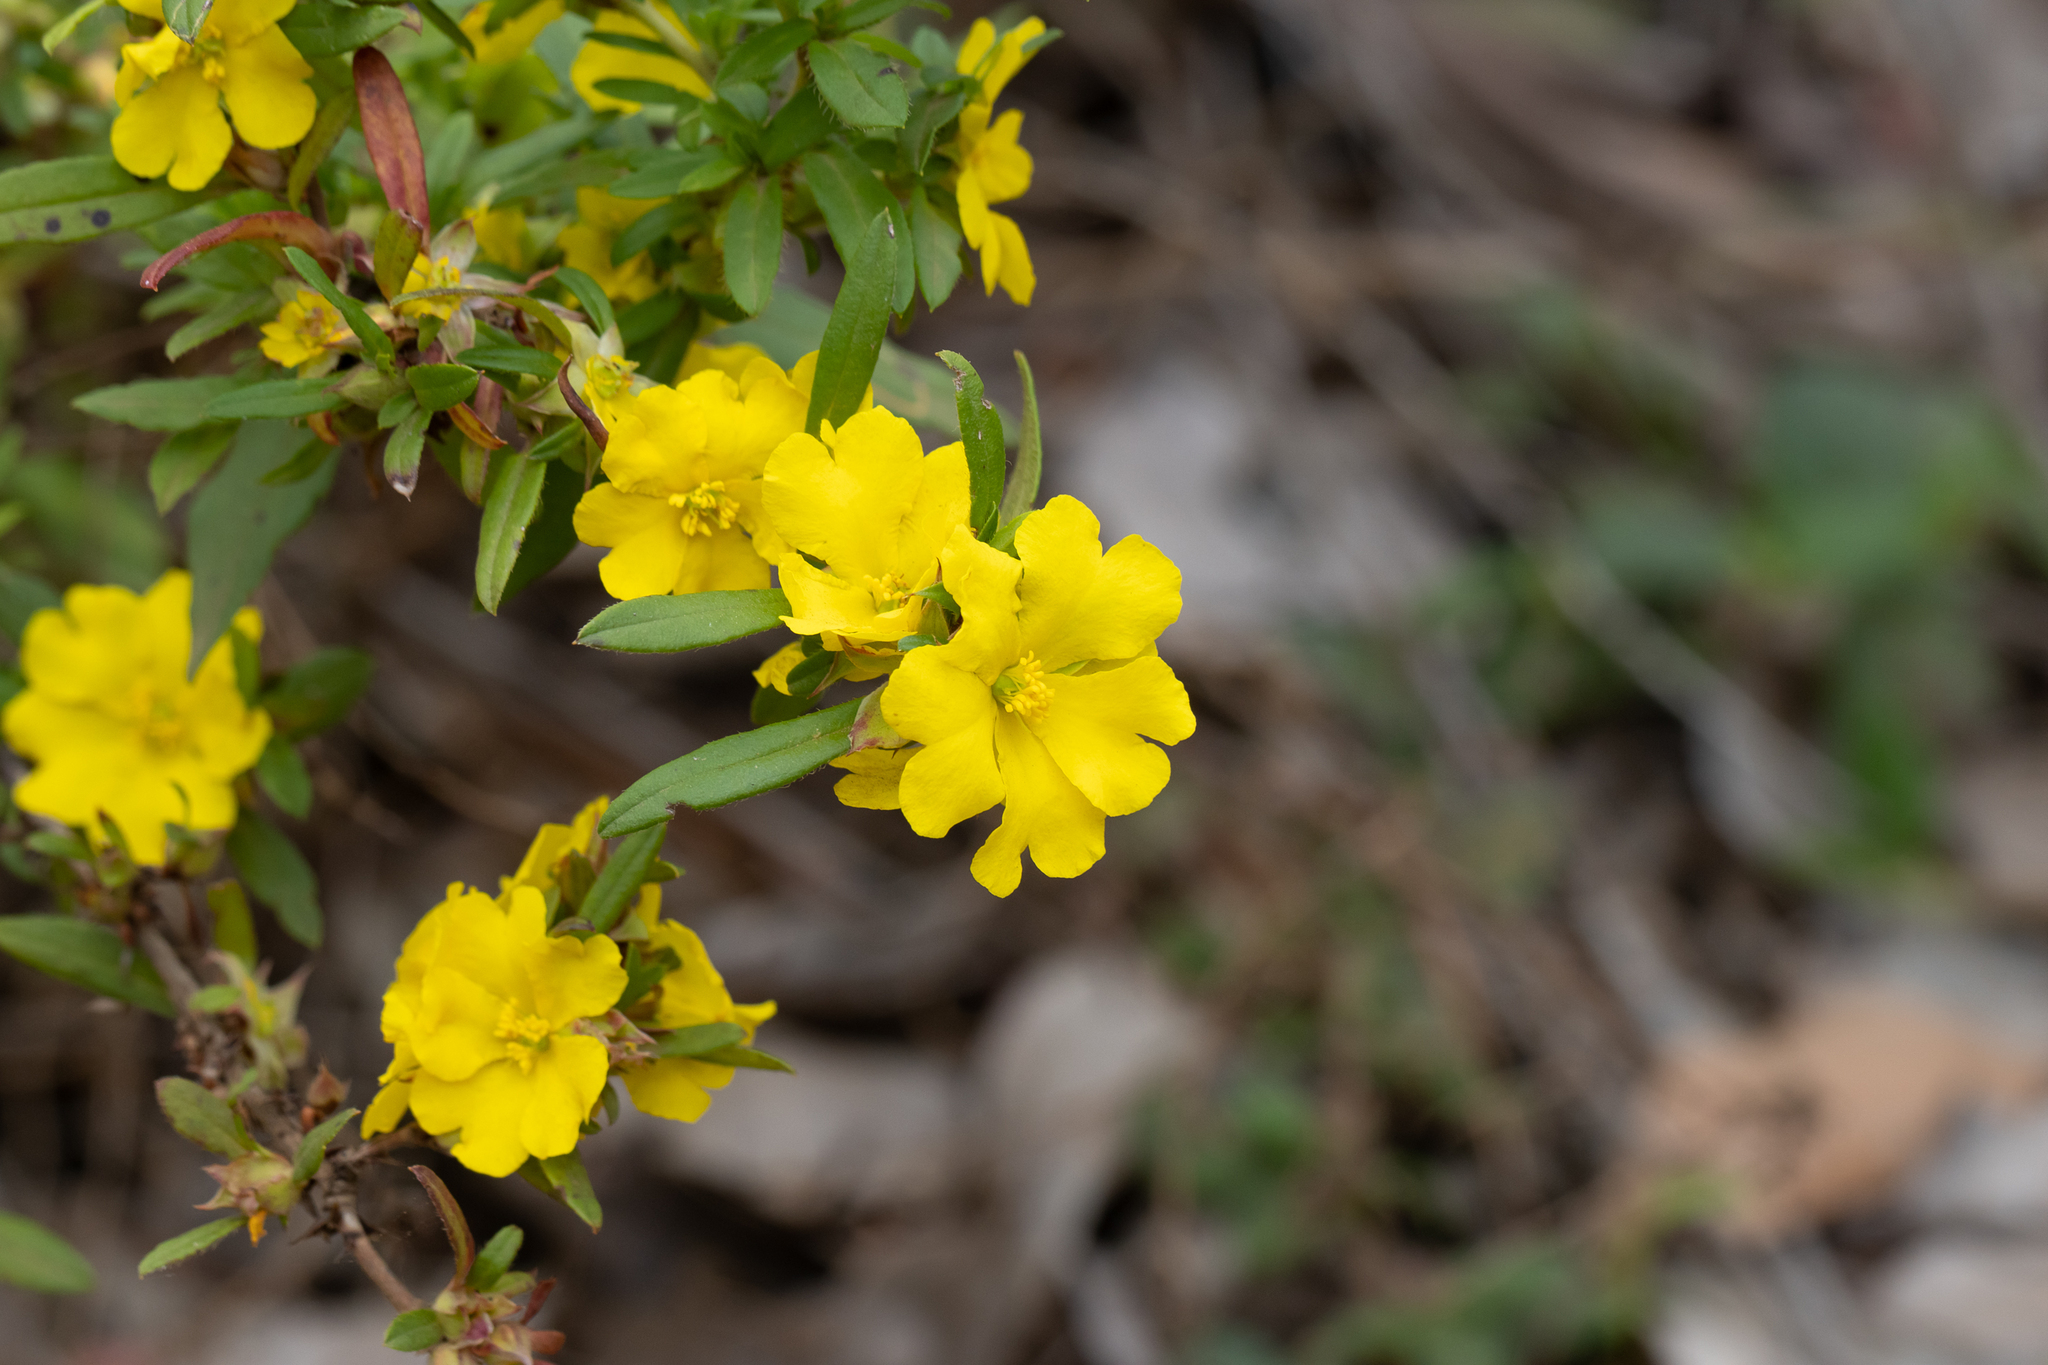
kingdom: Plantae
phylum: Tracheophyta
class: Magnoliopsida
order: Dilleniales
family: Dilleniaceae
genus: Hibbertia
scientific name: Hibbertia serrata
